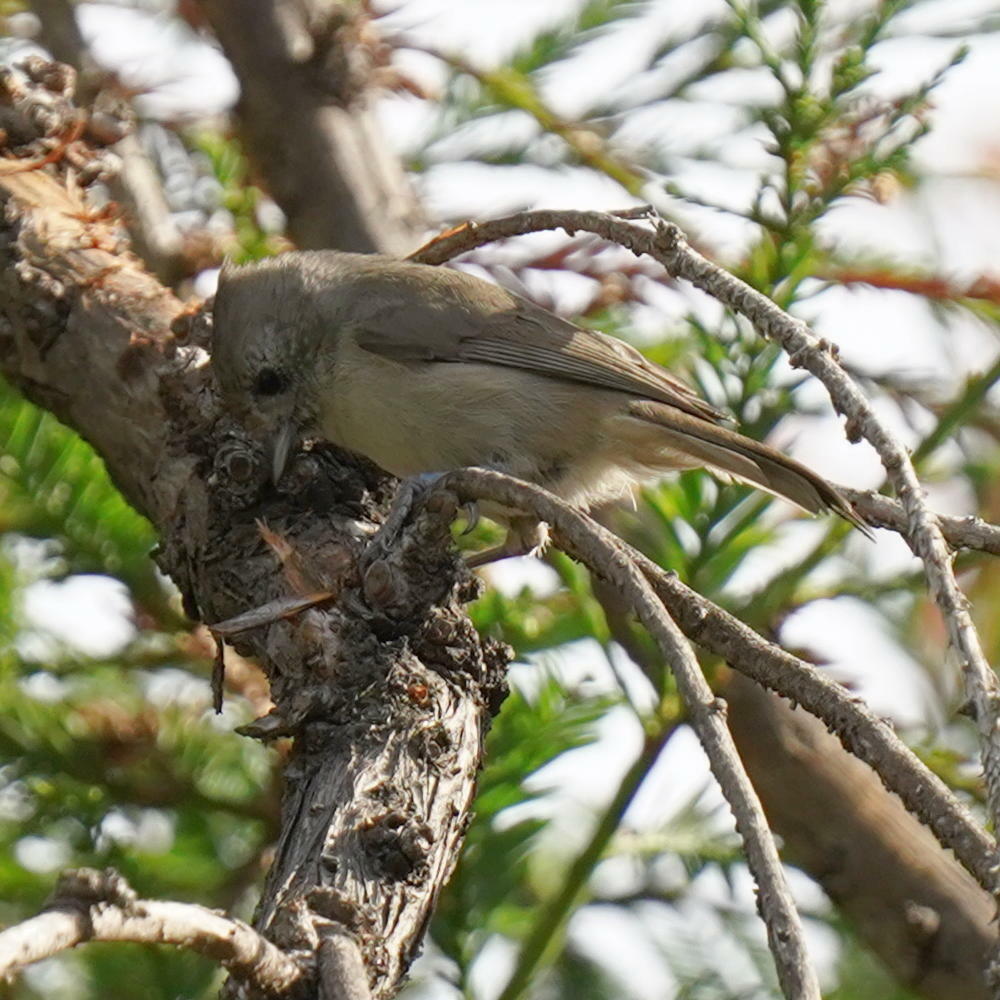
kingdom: Animalia
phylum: Chordata
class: Aves
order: Passeriformes
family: Paridae
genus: Baeolophus
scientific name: Baeolophus inornatus
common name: Oak titmouse
